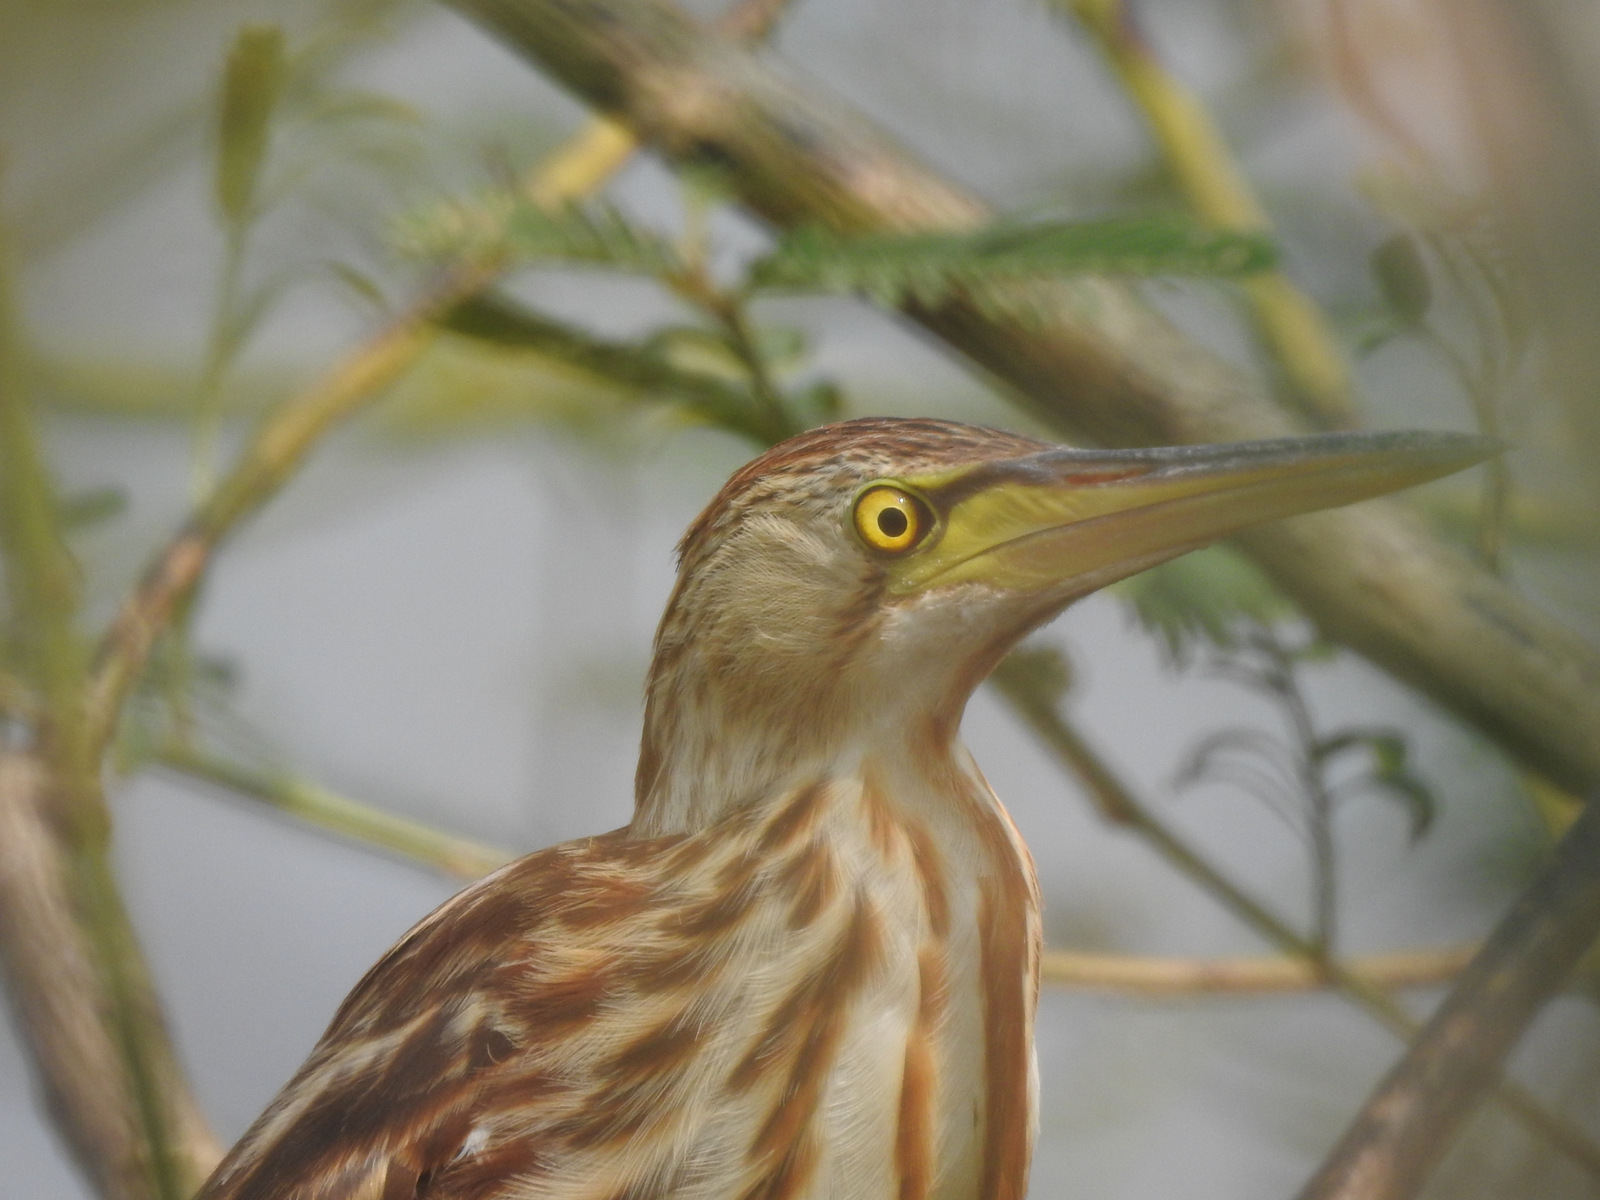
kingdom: Animalia
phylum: Chordata
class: Aves
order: Pelecaniformes
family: Ardeidae
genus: Ixobrychus
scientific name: Ixobrychus sinensis
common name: Yellow bittern
